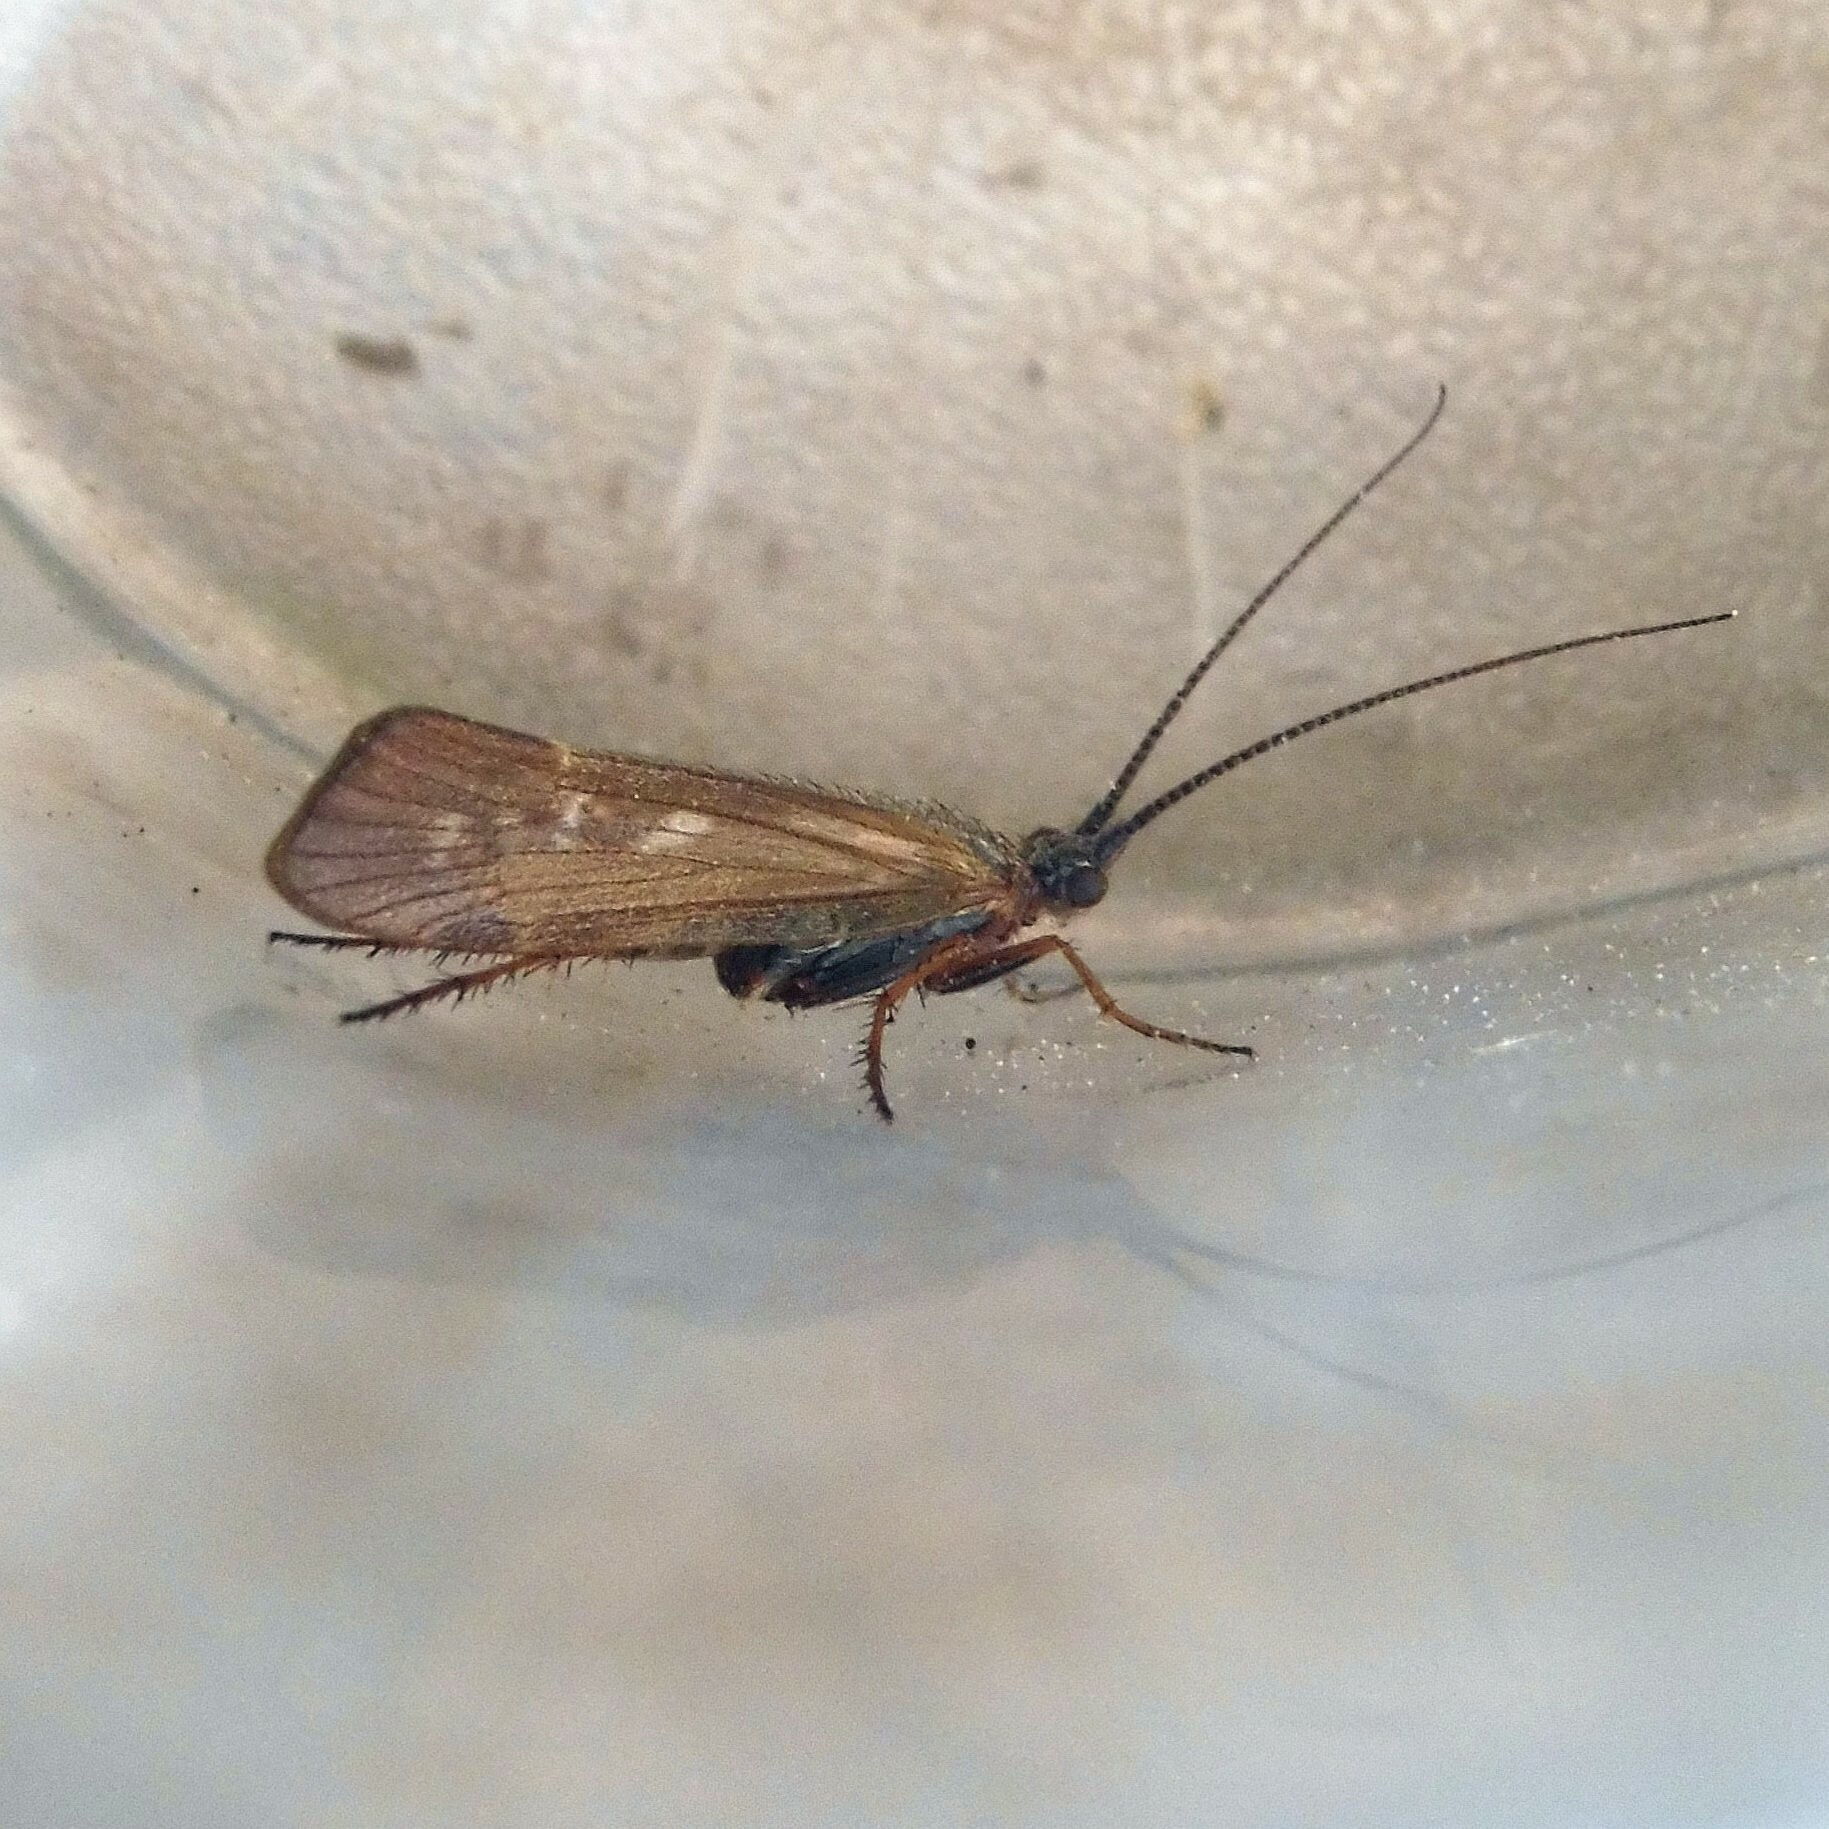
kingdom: Animalia
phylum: Arthropoda
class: Insecta
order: Trichoptera
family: Limnephilidae
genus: Limnephilus
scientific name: Limnephilus auricula
